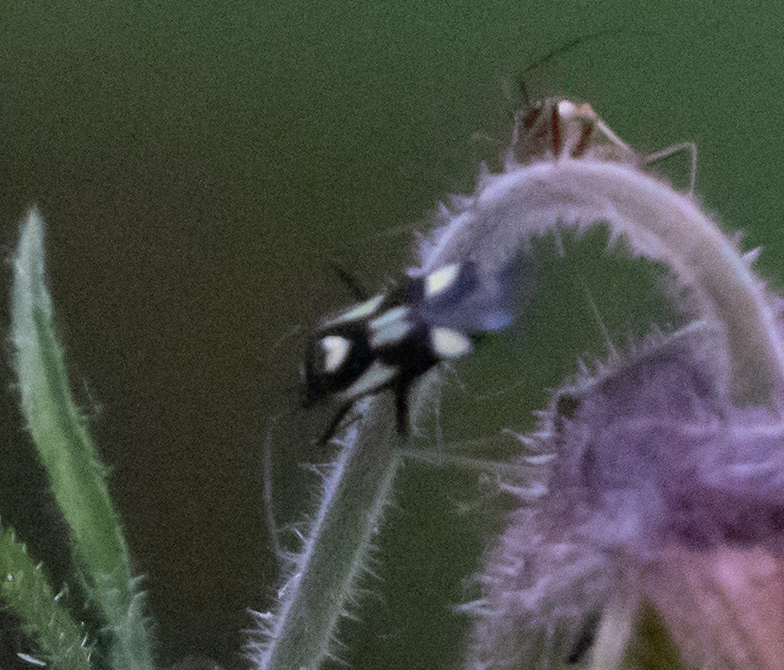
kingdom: Animalia
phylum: Arthropoda
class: Insecta
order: Hemiptera
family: Miridae
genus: Grypocoris
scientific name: Grypocoris sexguttatus
